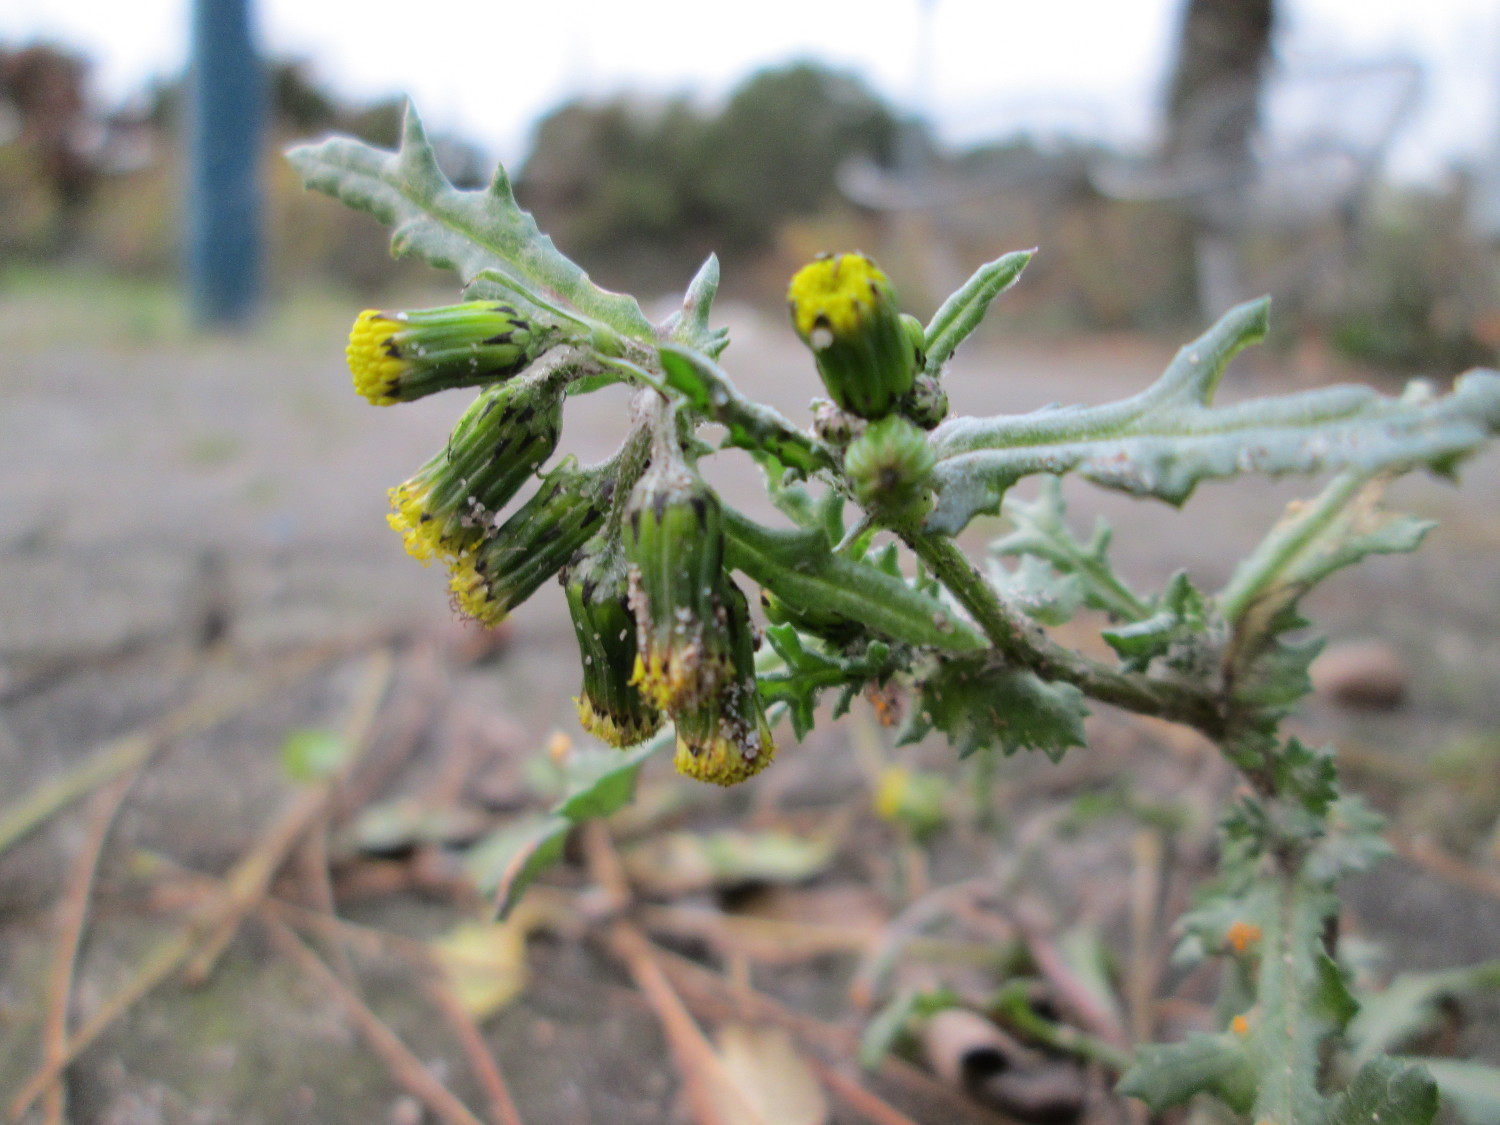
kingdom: Plantae
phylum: Tracheophyta
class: Magnoliopsida
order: Asterales
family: Asteraceae
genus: Senecio
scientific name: Senecio vulgaris
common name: Old-man-in-the-spring
